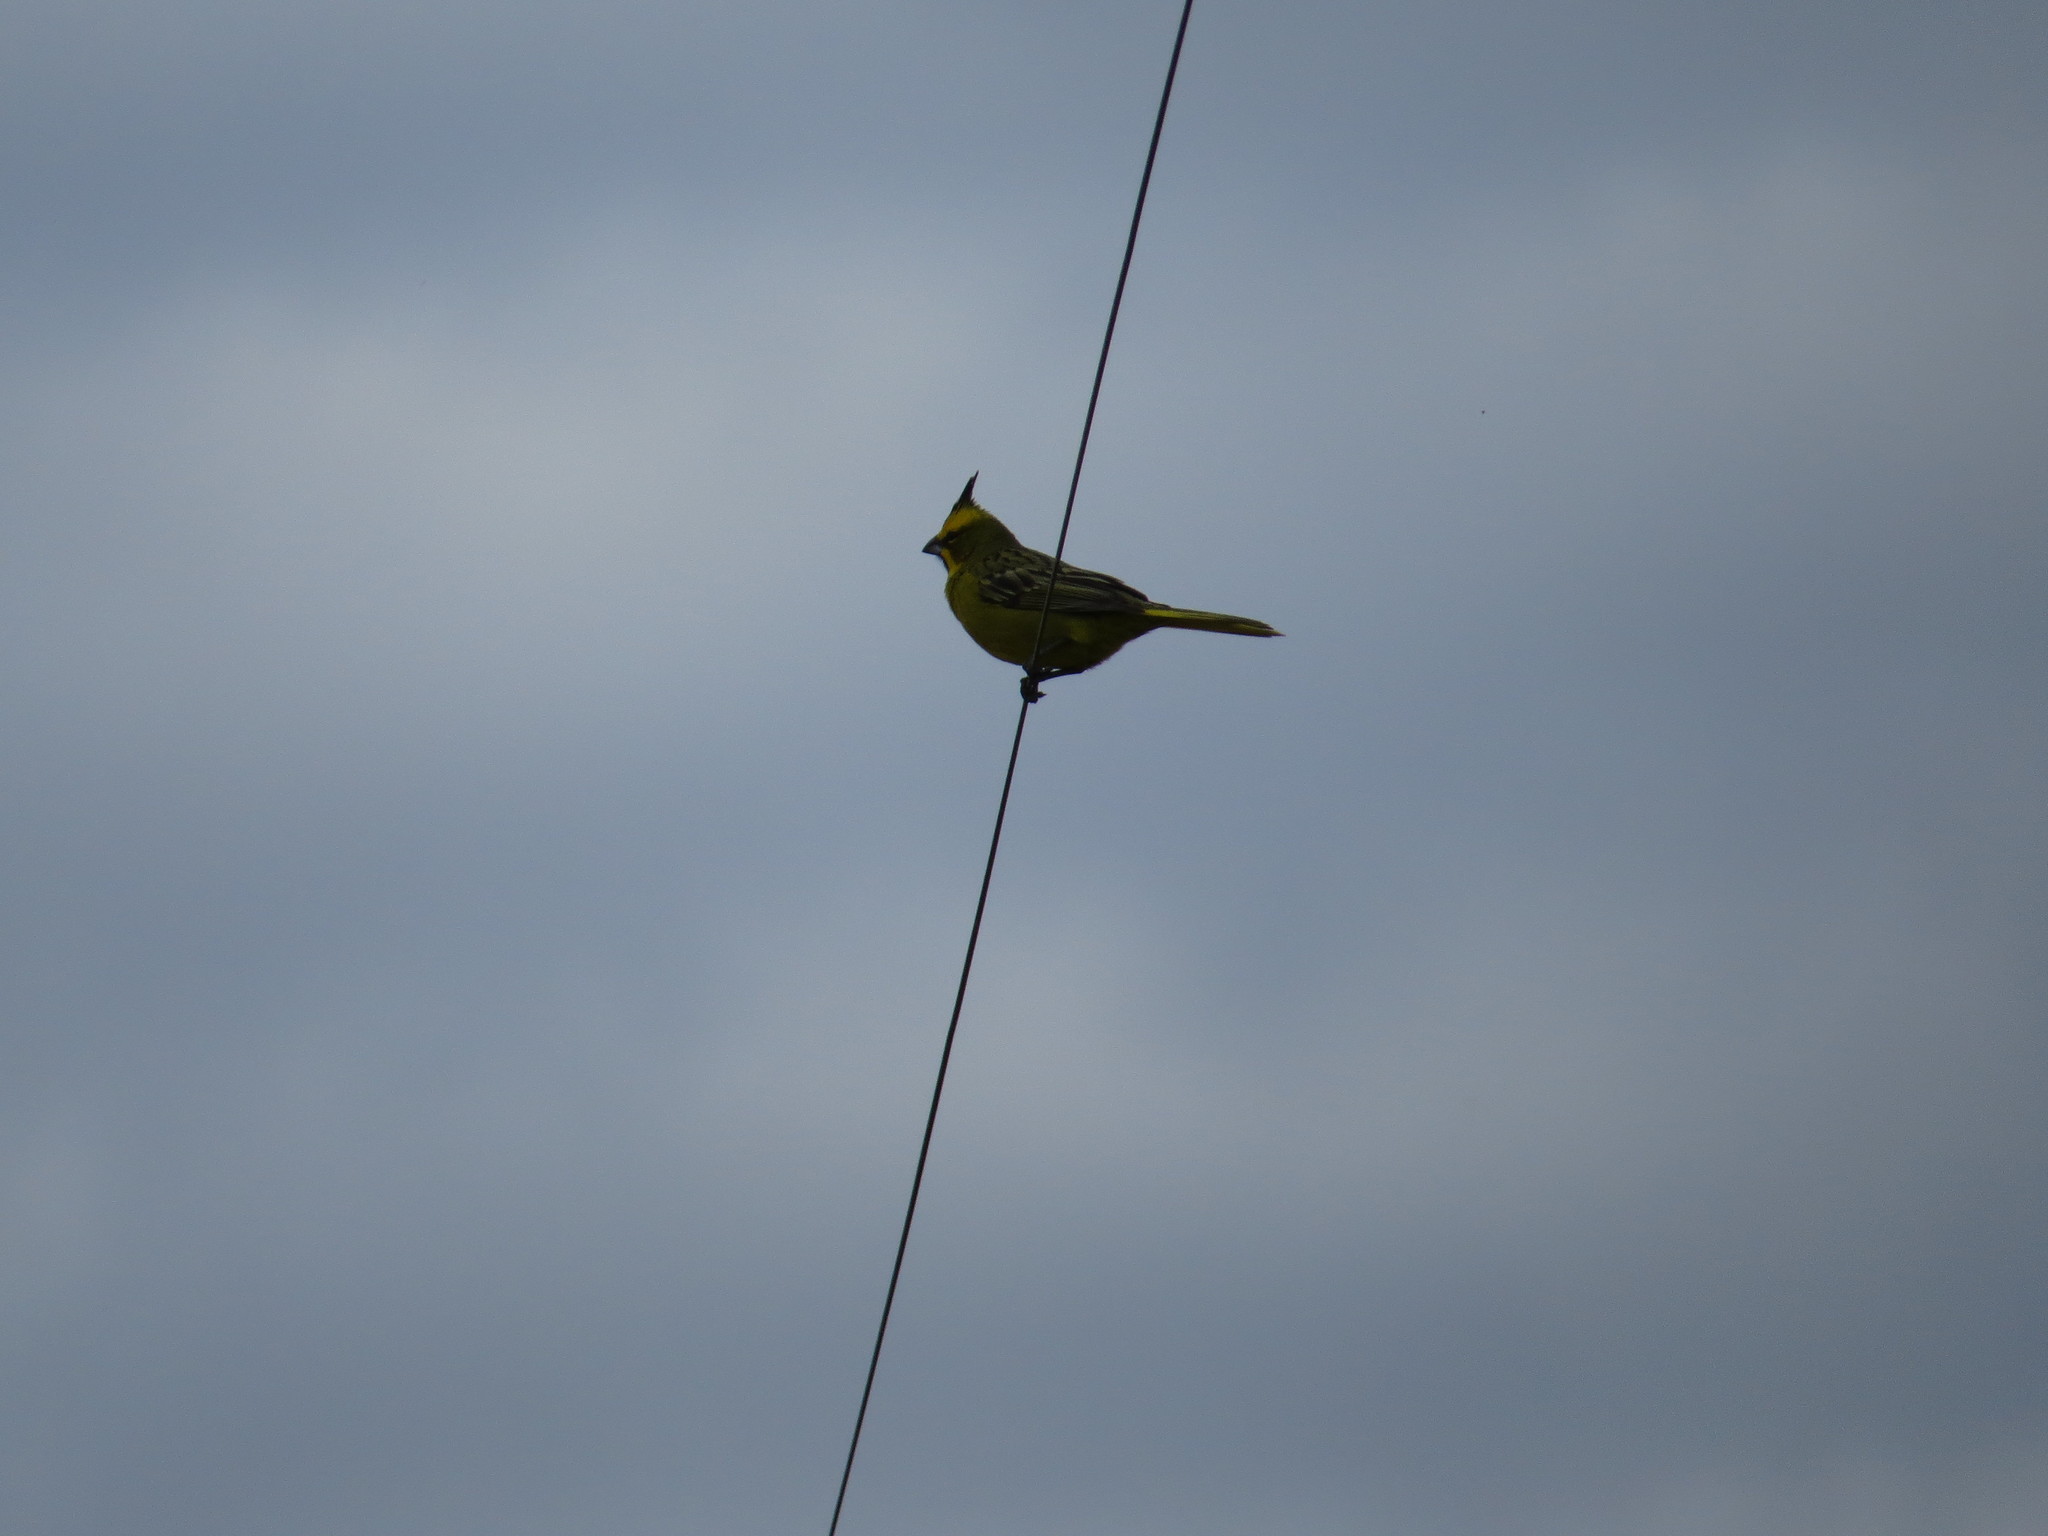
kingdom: Animalia
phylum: Chordata
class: Aves
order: Passeriformes
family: Thraupidae
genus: Gubernatrix
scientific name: Gubernatrix cristata
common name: Yellow cardinal
